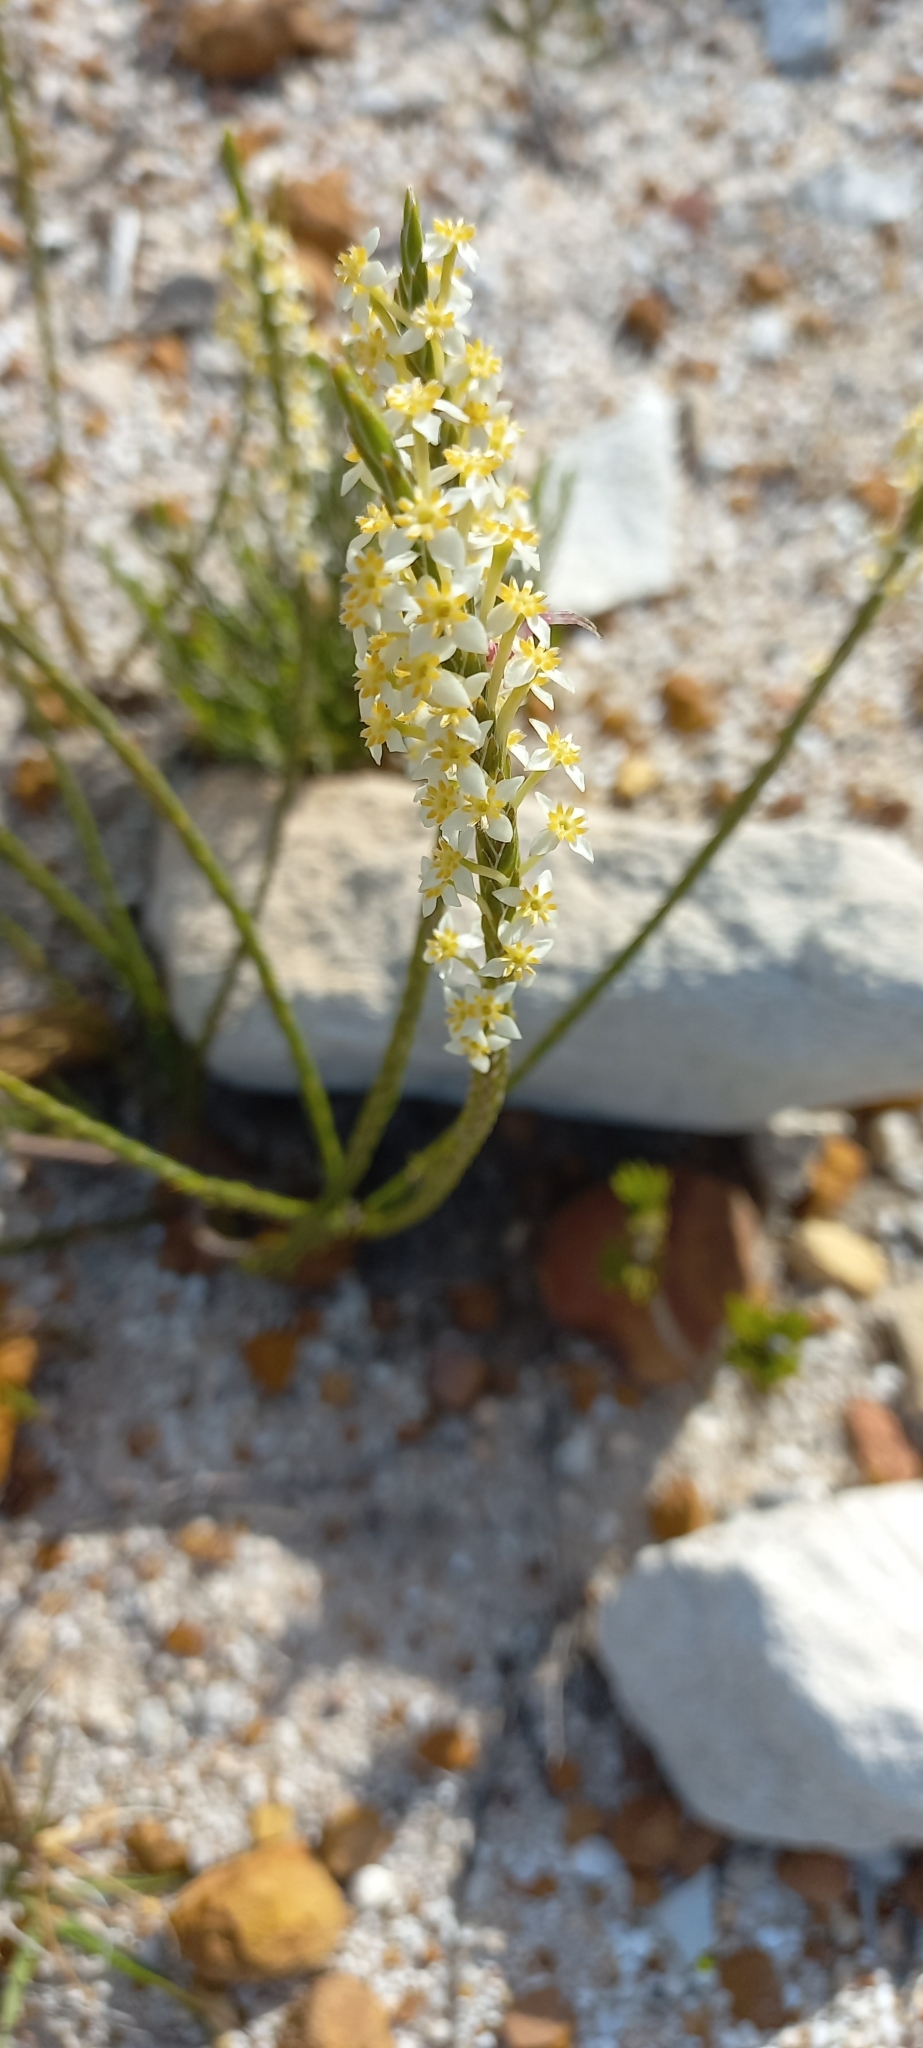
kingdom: Plantae
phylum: Tracheophyta
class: Magnoliopsida
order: Malvales
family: Thymelaeaceae
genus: Struthiola
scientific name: Struthiola ciliata
